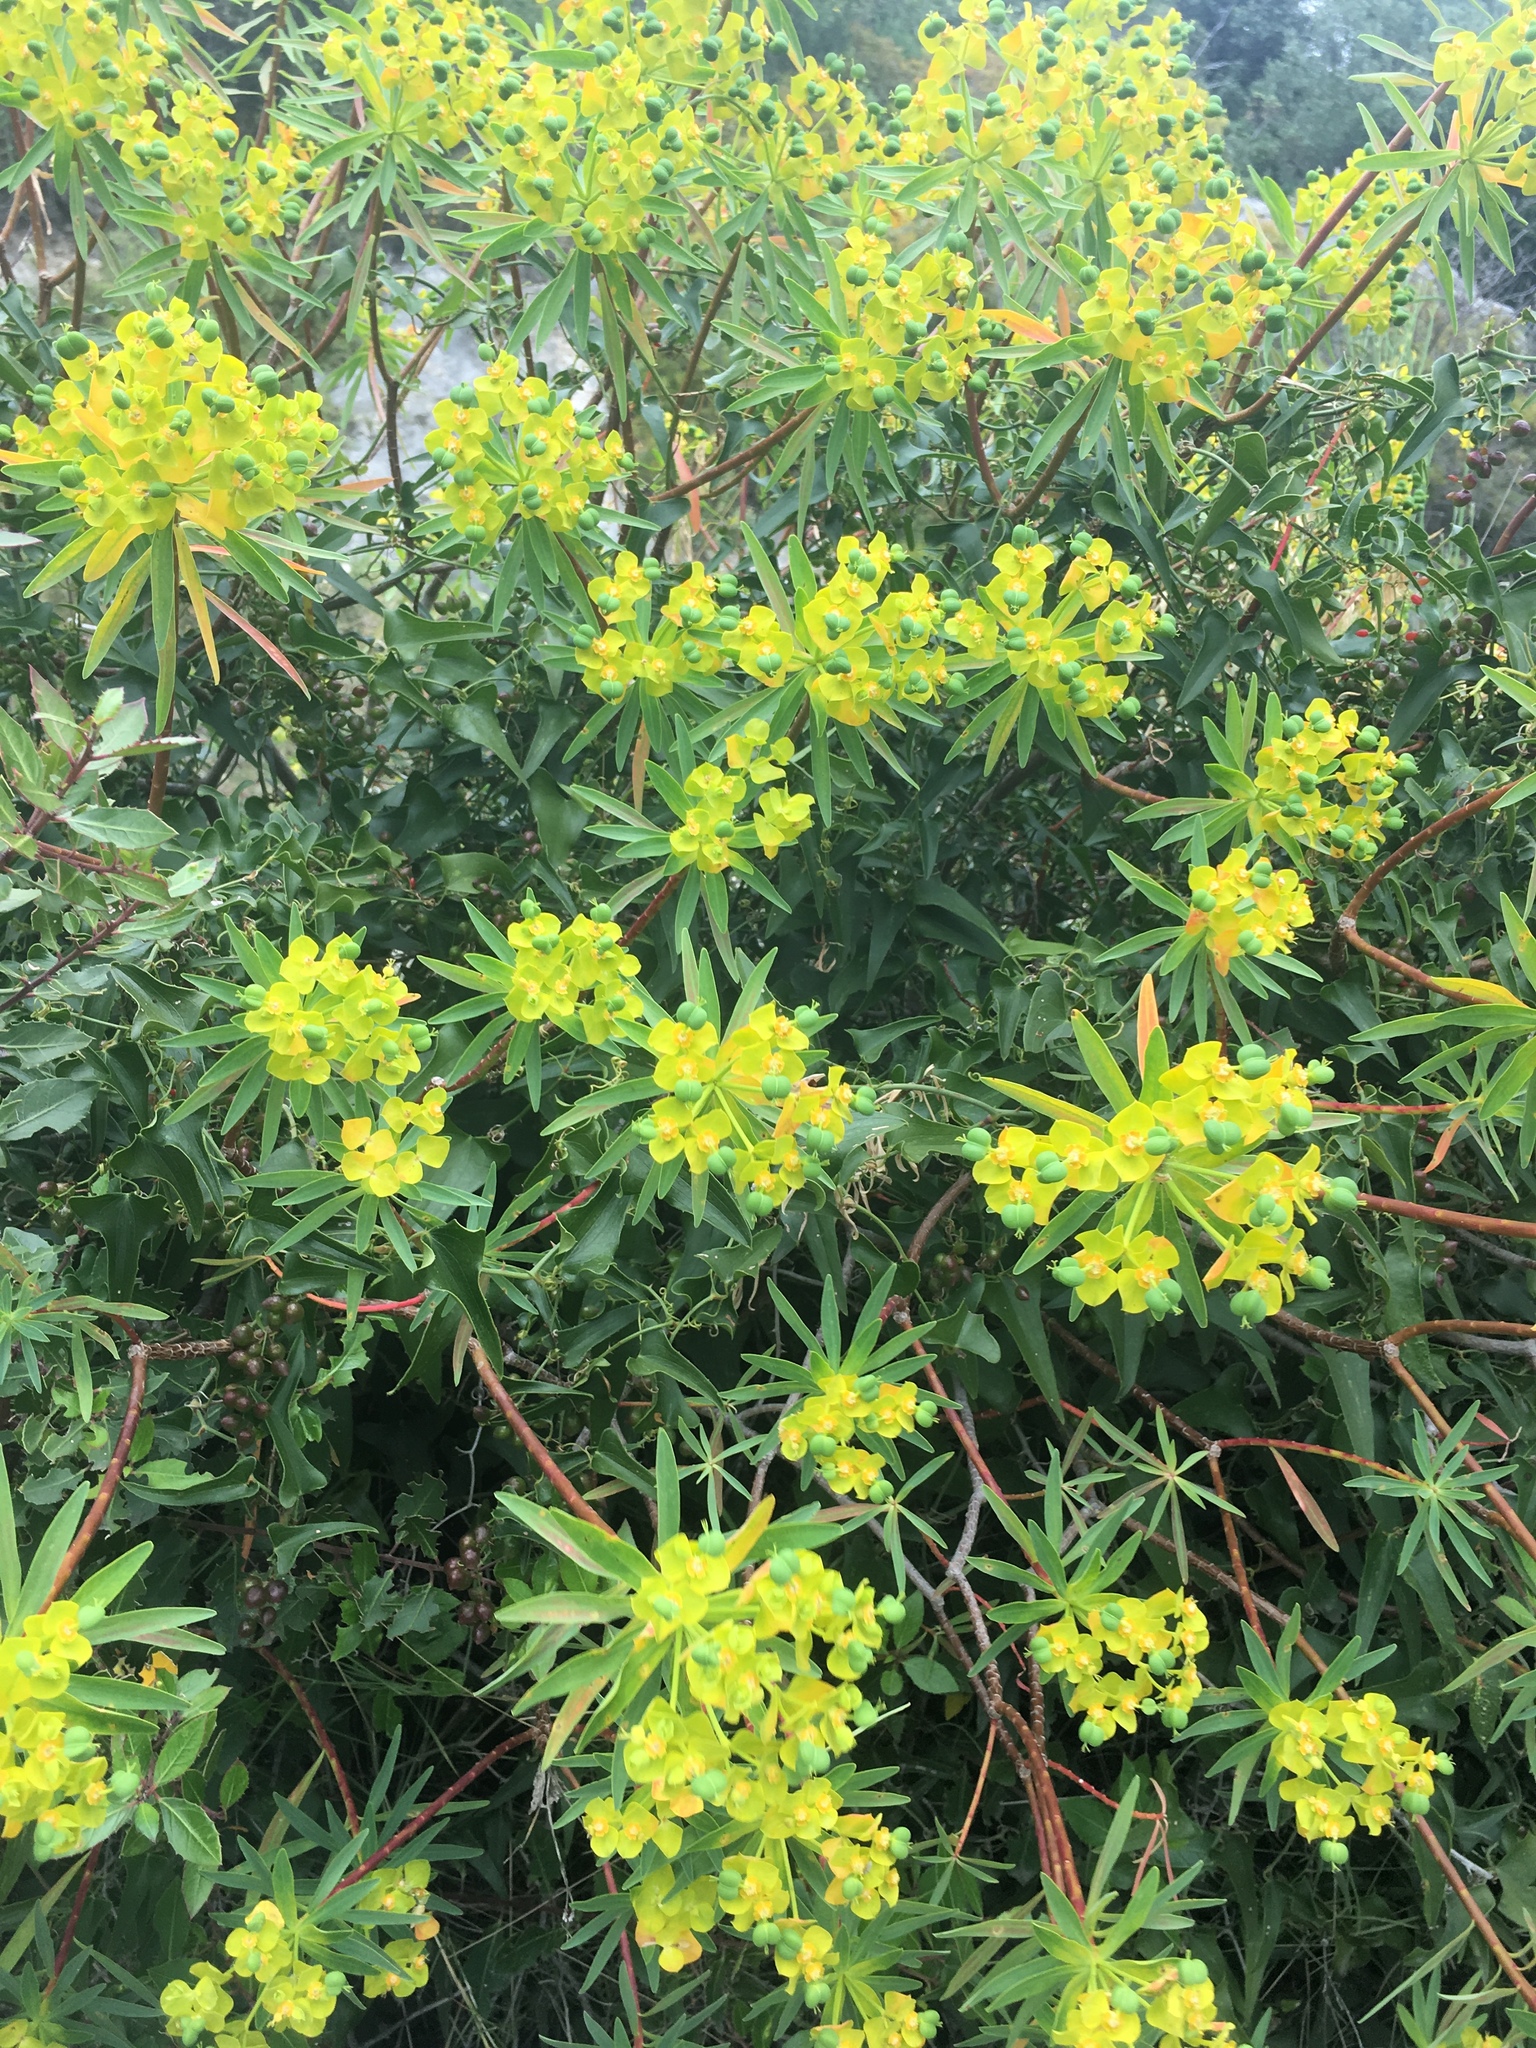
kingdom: Plantae
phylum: Tracheophyta
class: Magnoliopsida
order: Malpighiales
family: Euphorbiaceae
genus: Euphorbia
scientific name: Euphorbia dendroides
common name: Tree spurge
